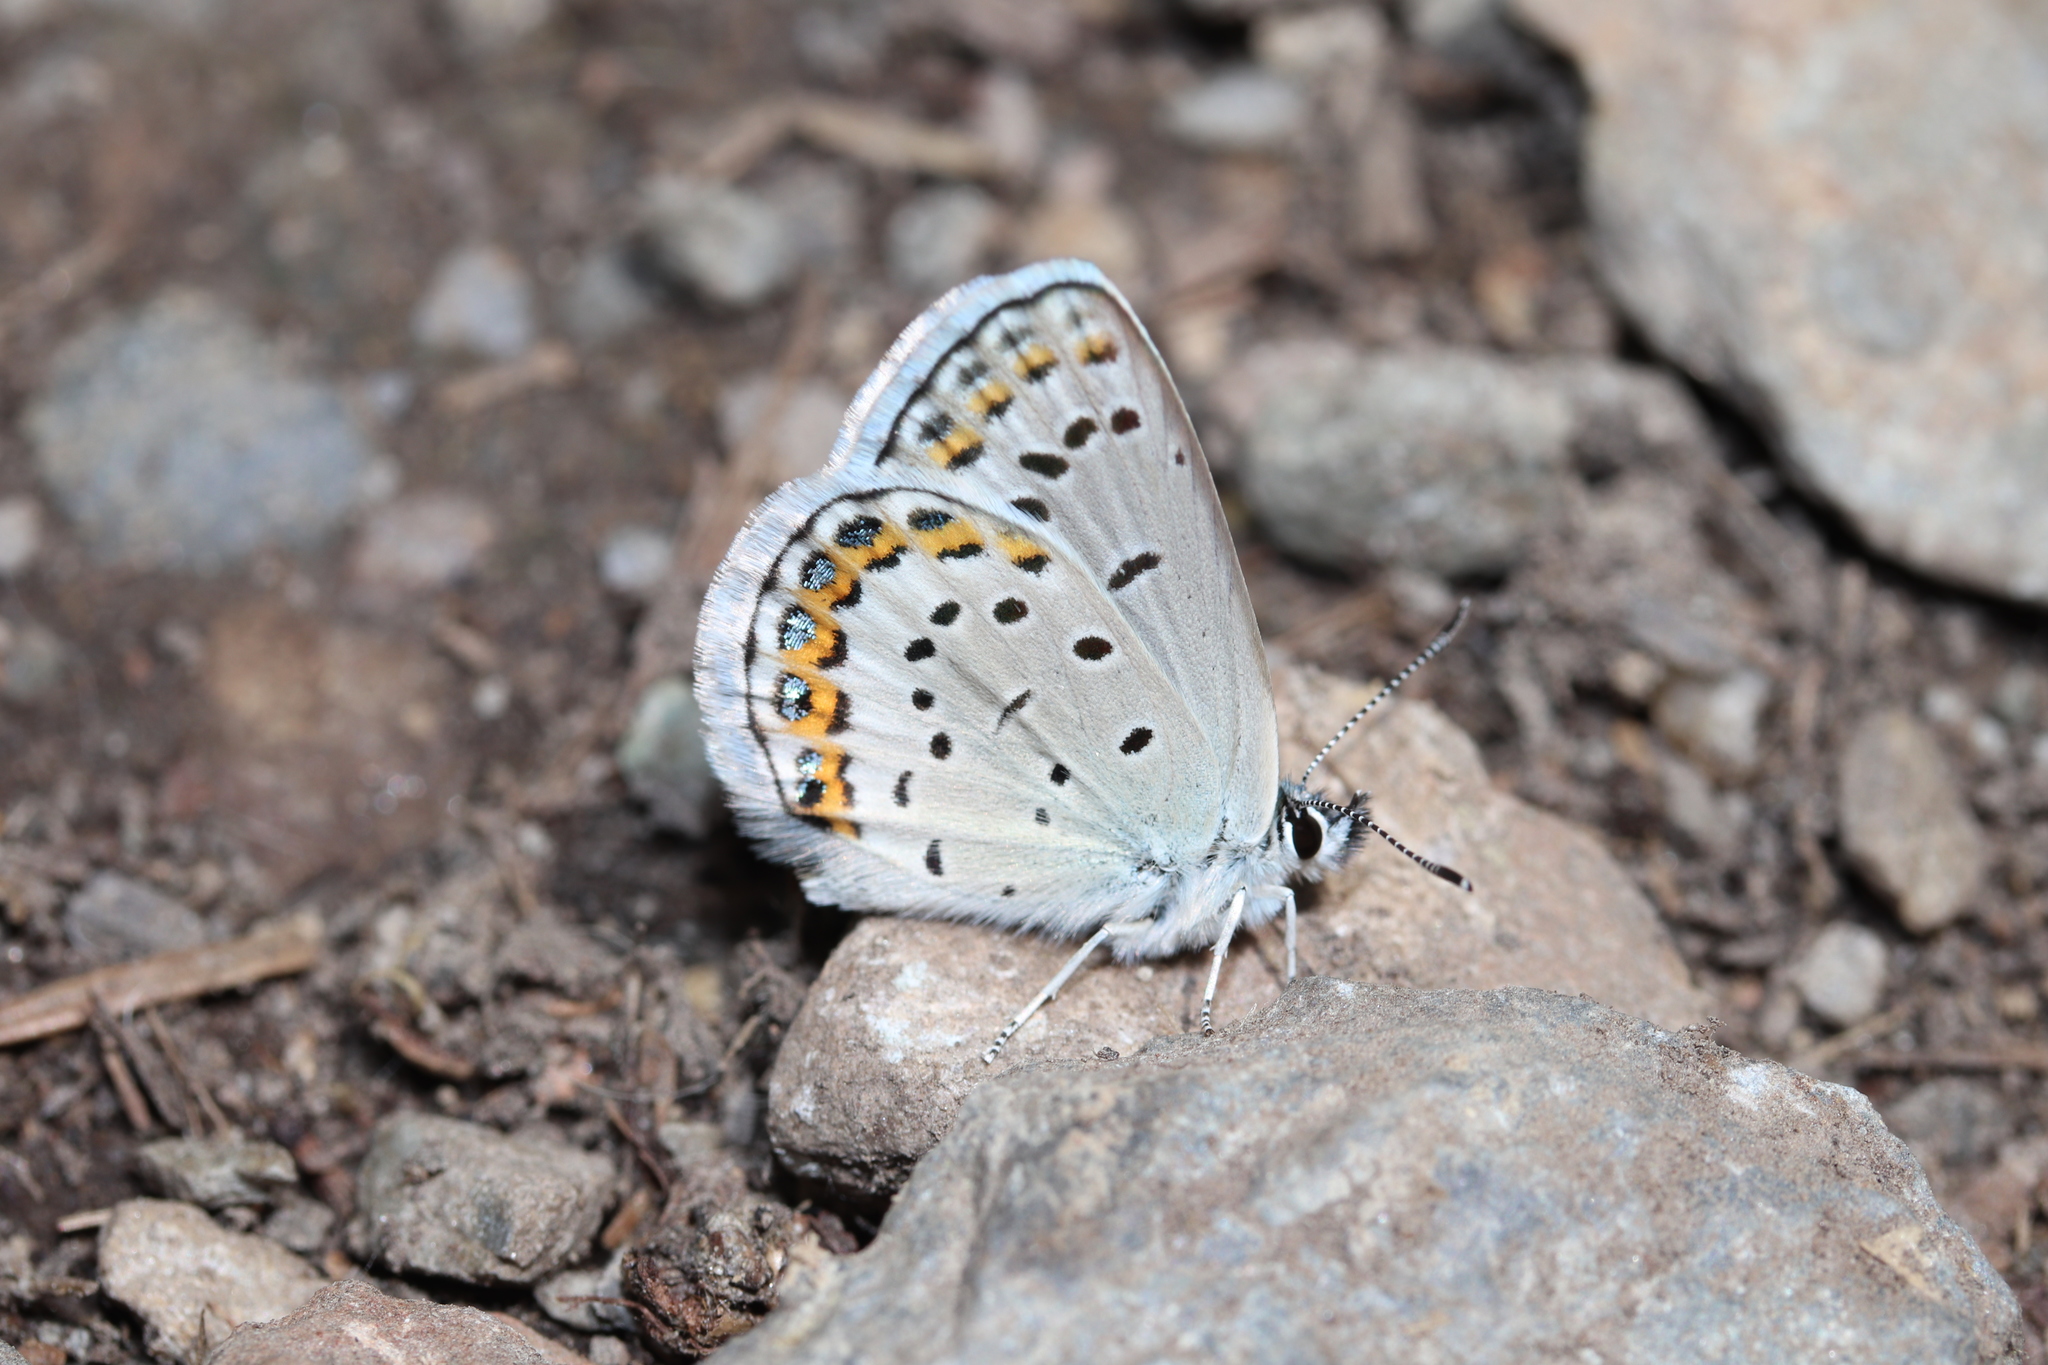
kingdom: Animalia
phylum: Arthropoda
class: Insecta
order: Lepidoptera
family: Lycaenidae
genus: Lycaeides
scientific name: Lycaeides melissa
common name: Melissa blue
